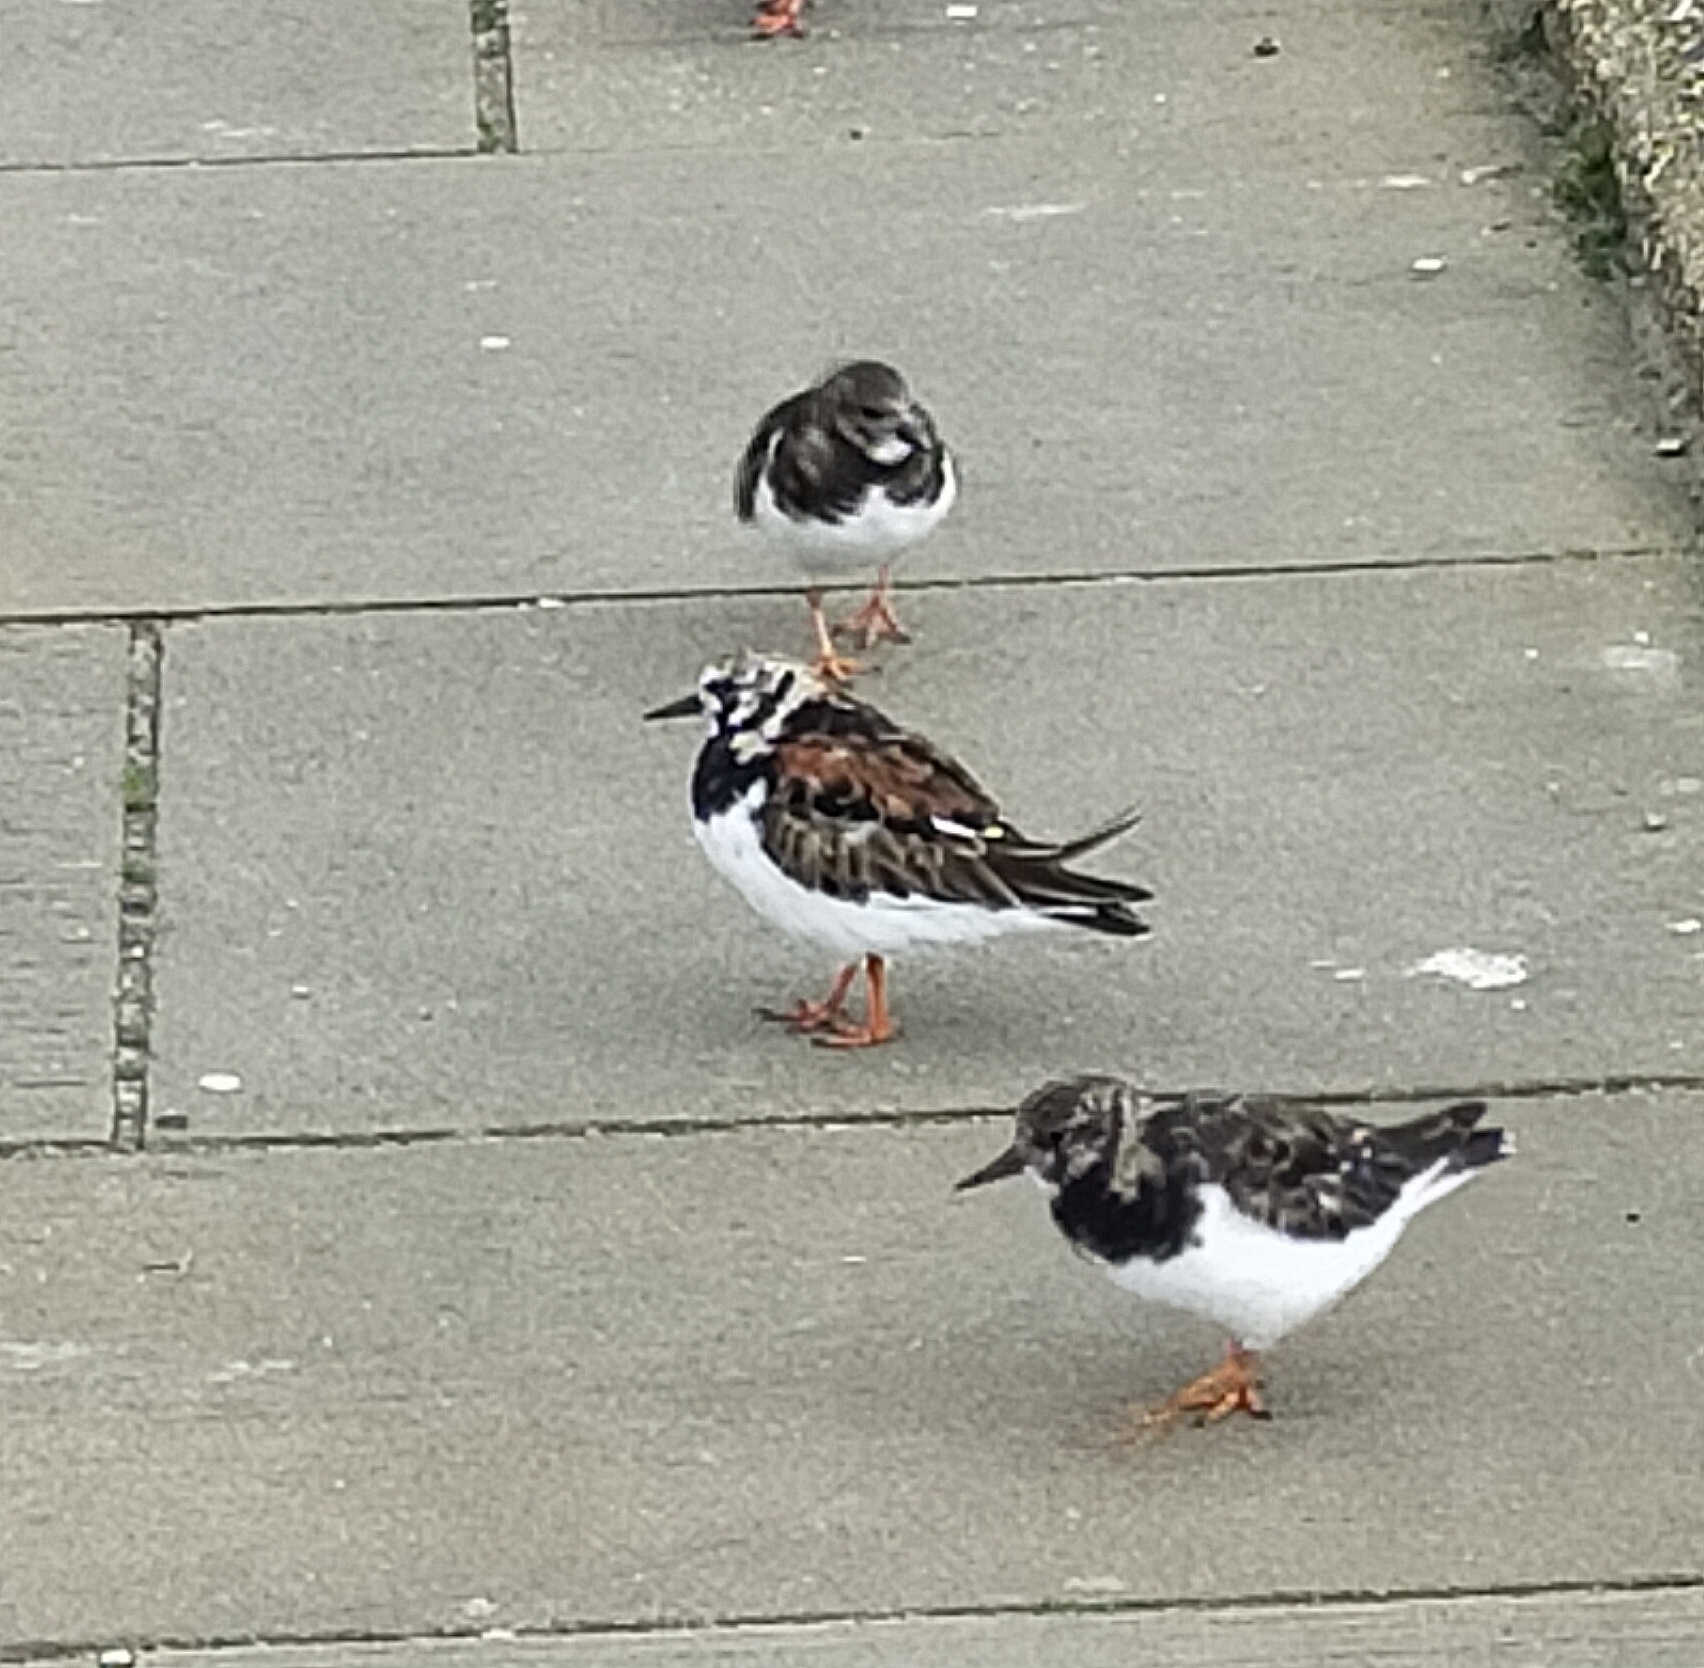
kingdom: Animalia
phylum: Chordata
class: Aves
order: Charadriiformes
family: Scolopacidae
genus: Arenaria
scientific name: Arenaria interpres
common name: Ruddy turnstone
